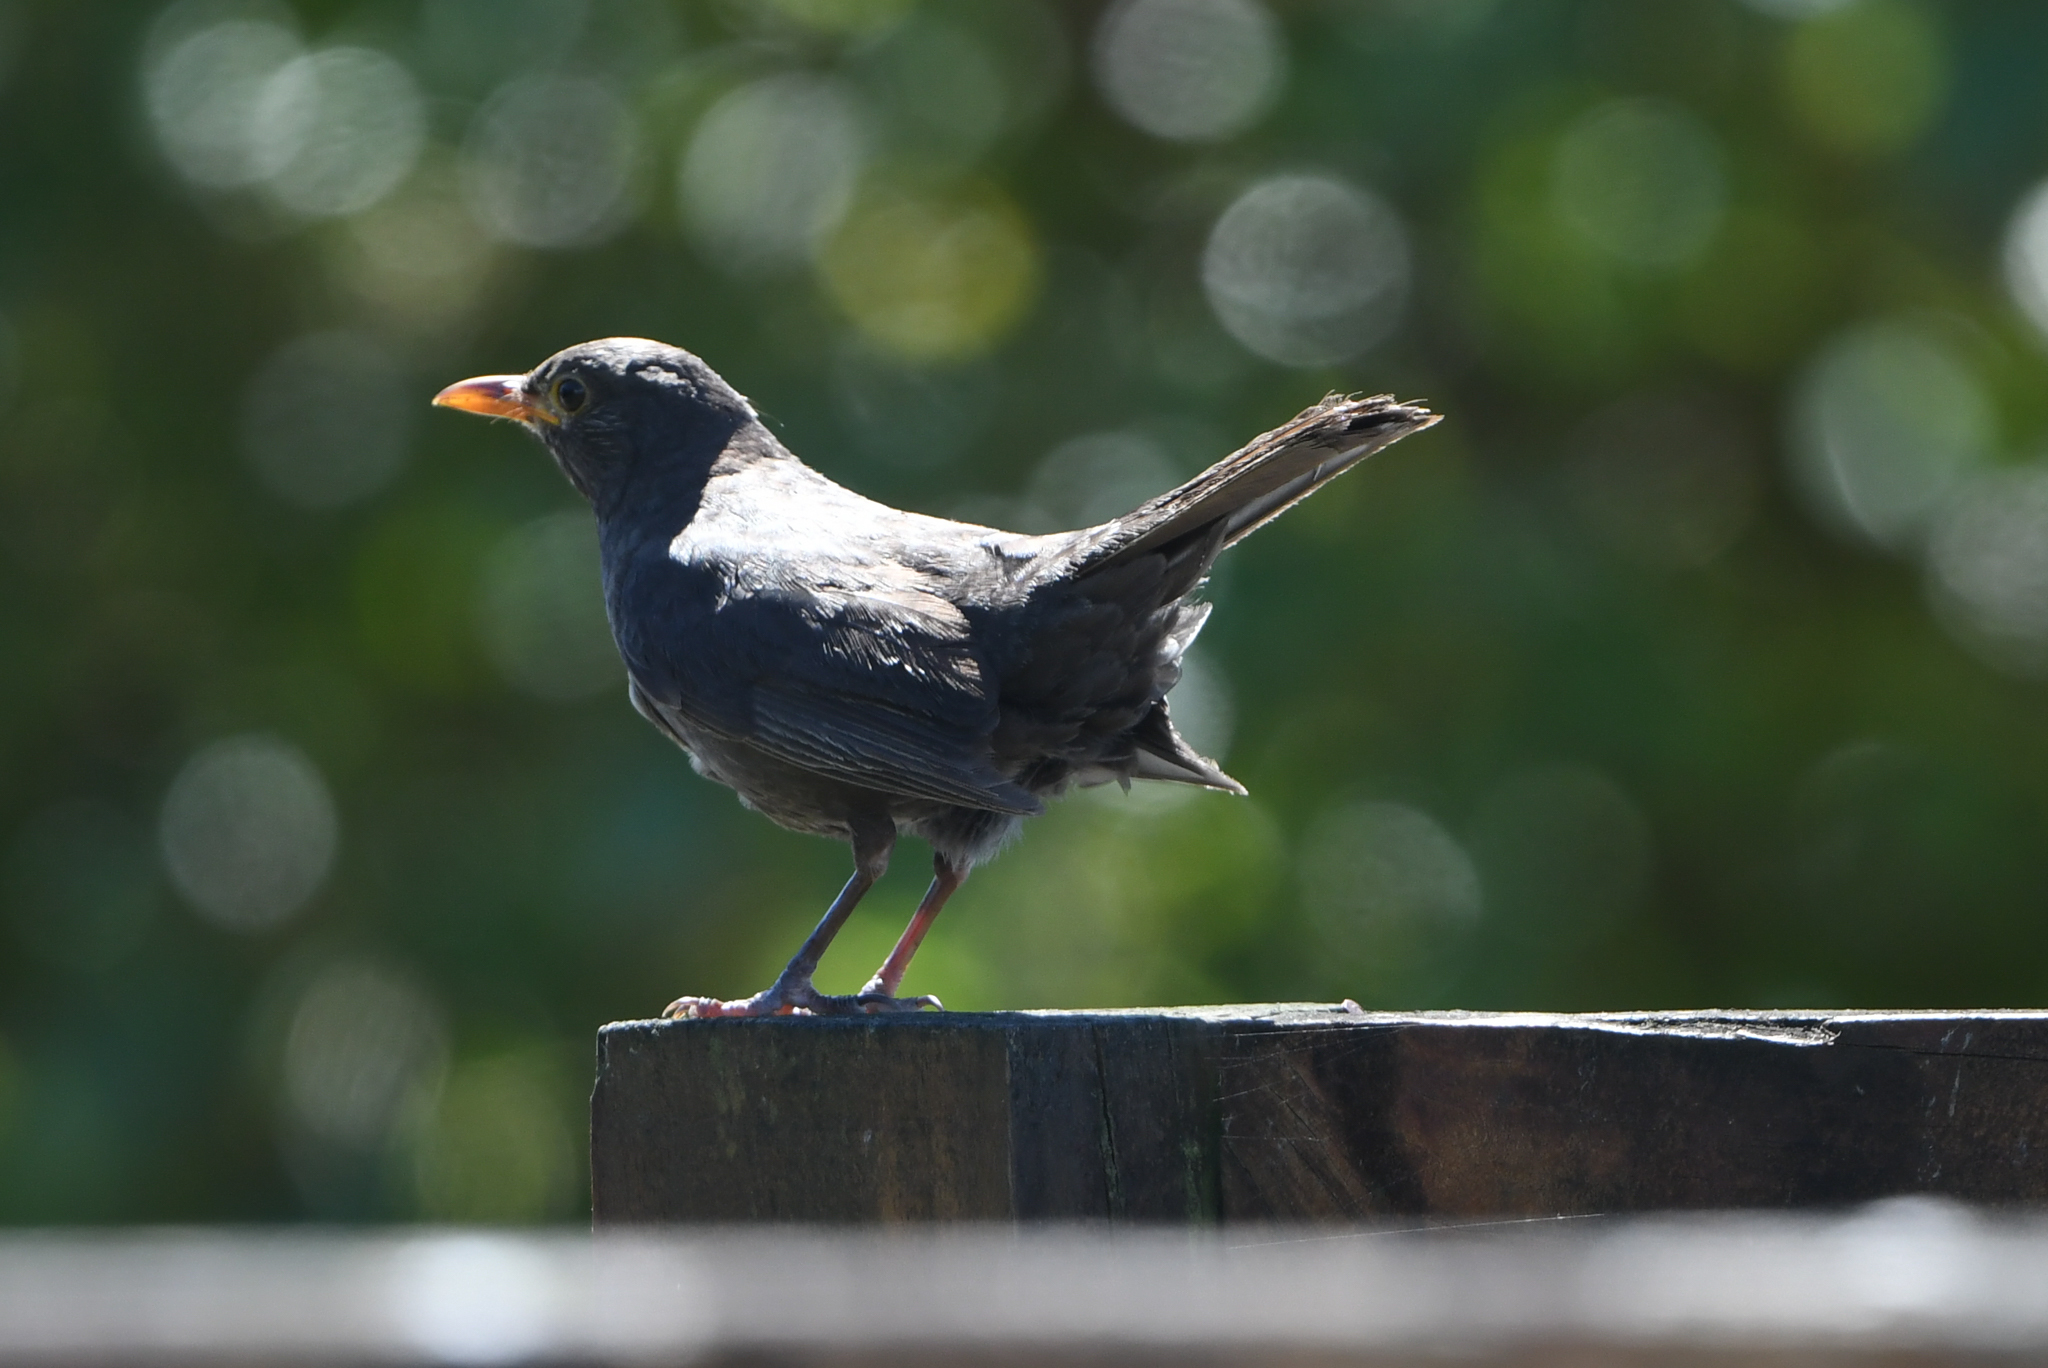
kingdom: Animalia
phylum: Chordata
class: Aves
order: Passeriformes
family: Turdidae
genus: Turdus
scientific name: Turdus merula
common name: Common blackbird
